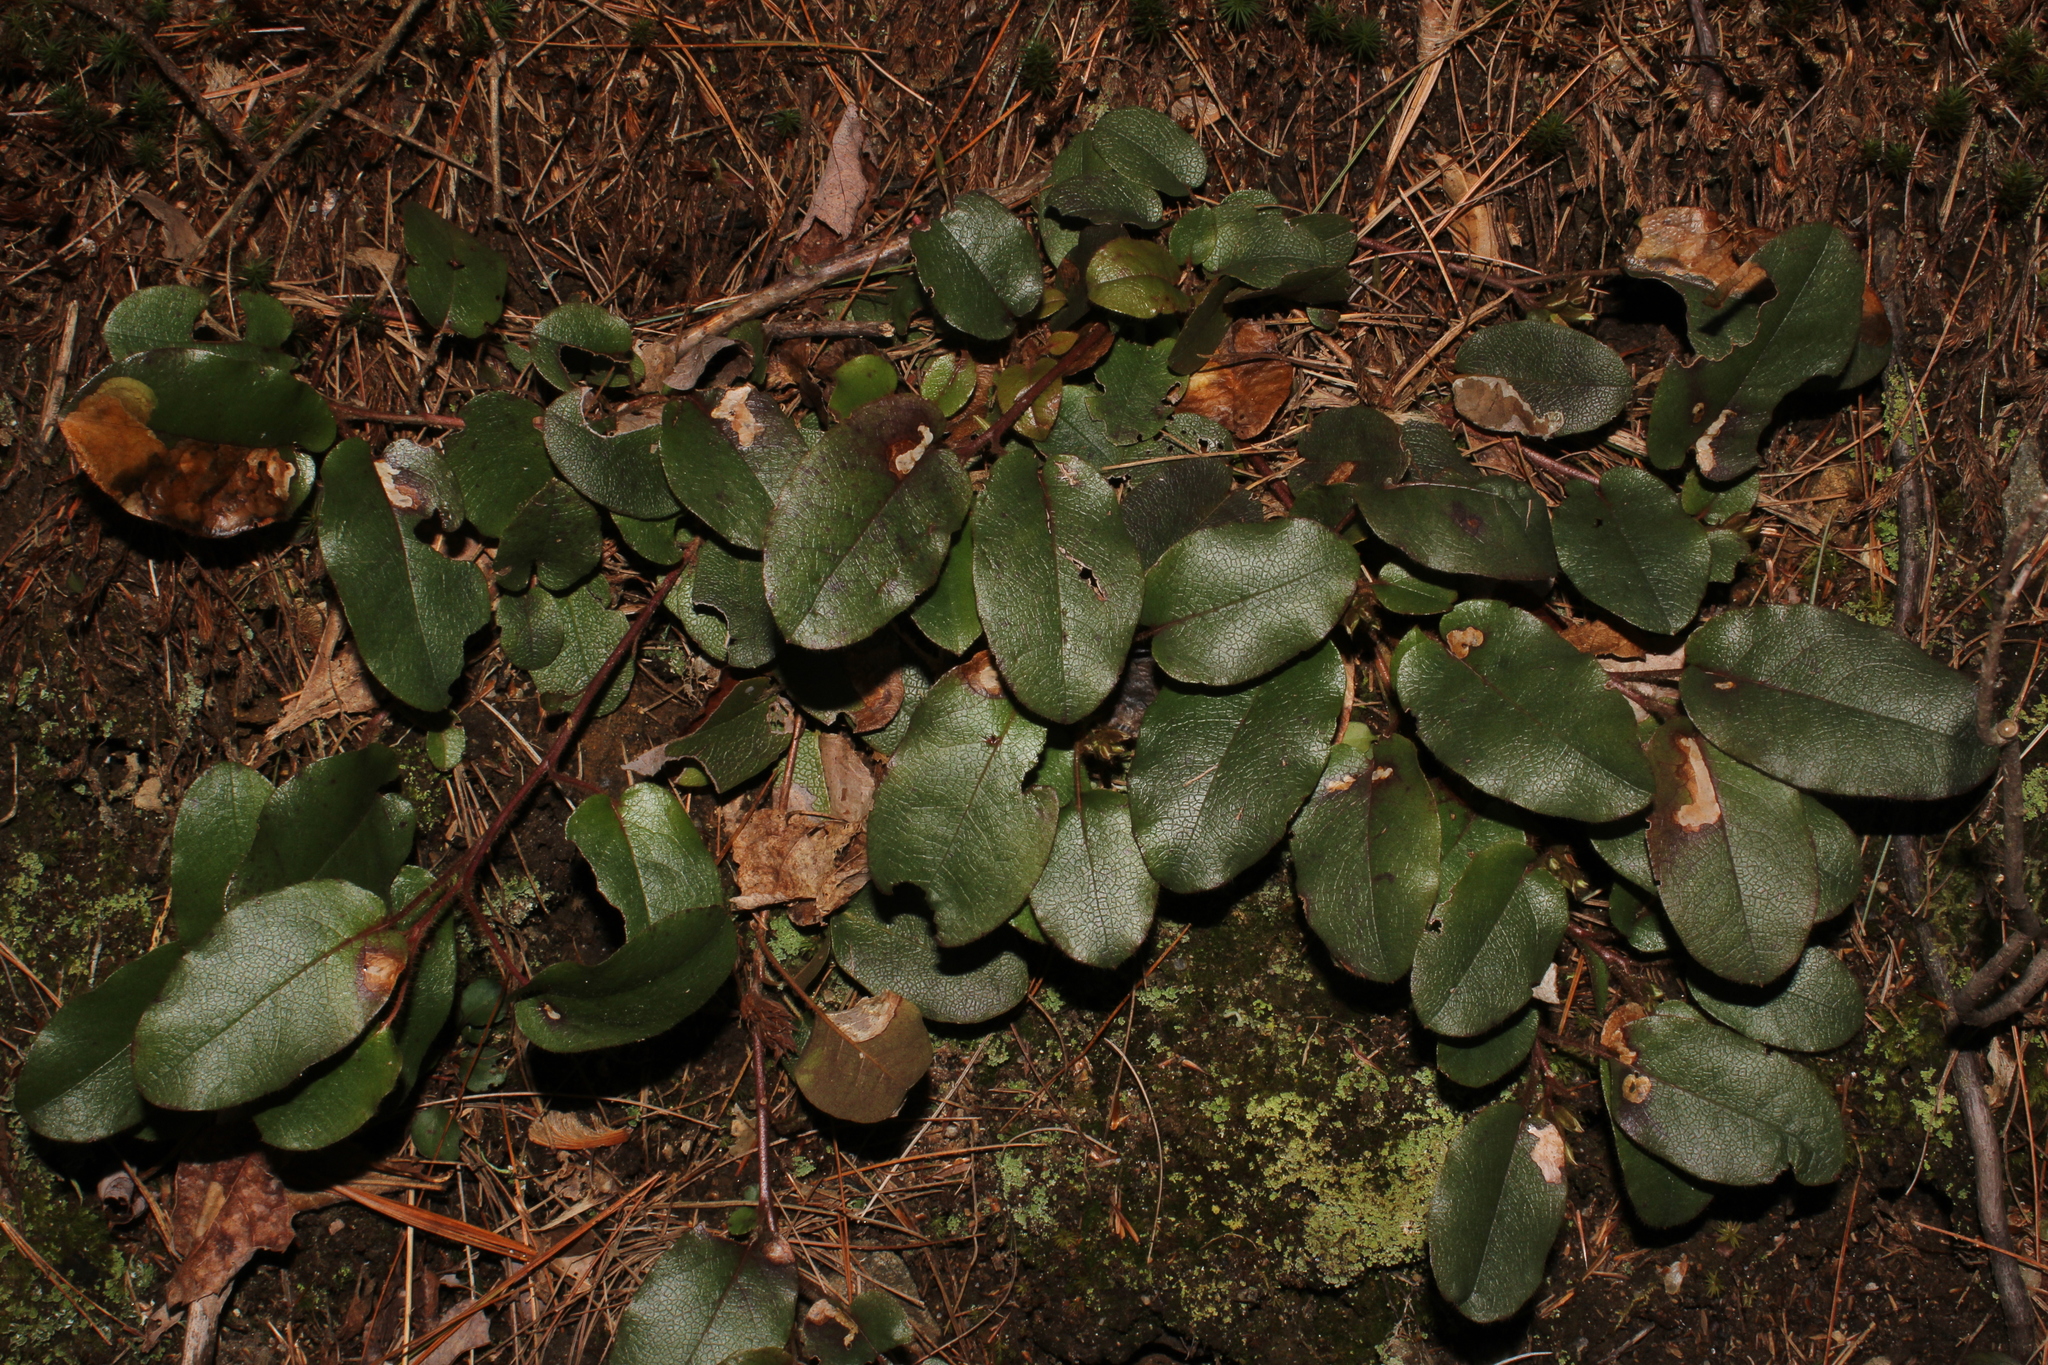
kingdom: Plantae
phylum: Tracheophyta
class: Magnoliopsida
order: Ericales
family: Ericaceae
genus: Epigaea
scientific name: Epigaea repens
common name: Gravelroot
